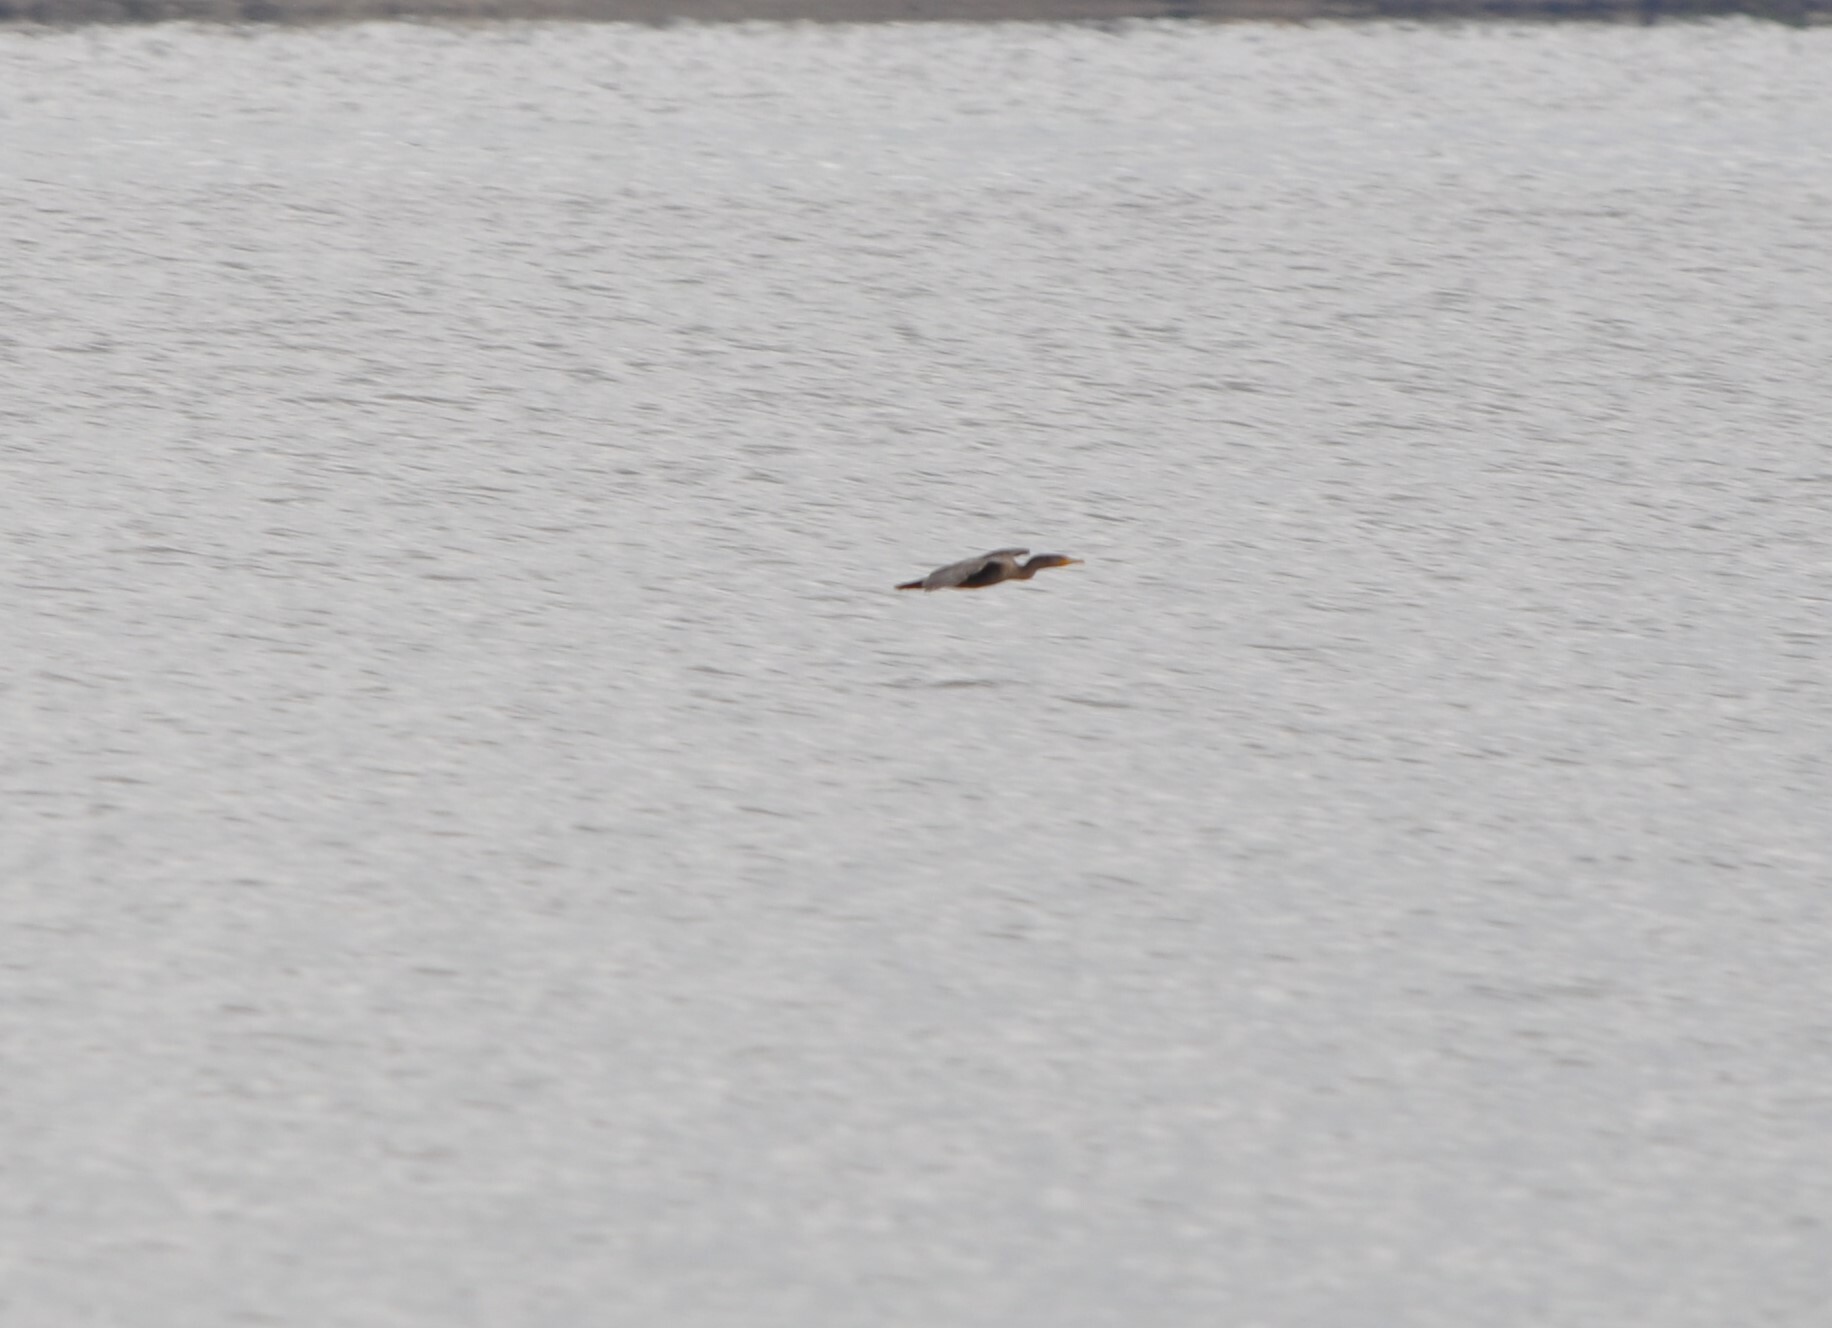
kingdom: Animalia
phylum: Chordata
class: Aves
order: Suliformes
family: Phalacrocoracidae
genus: Phalacrocorax
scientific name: Phalacrocorax auritus
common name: Double-crested cormorant
